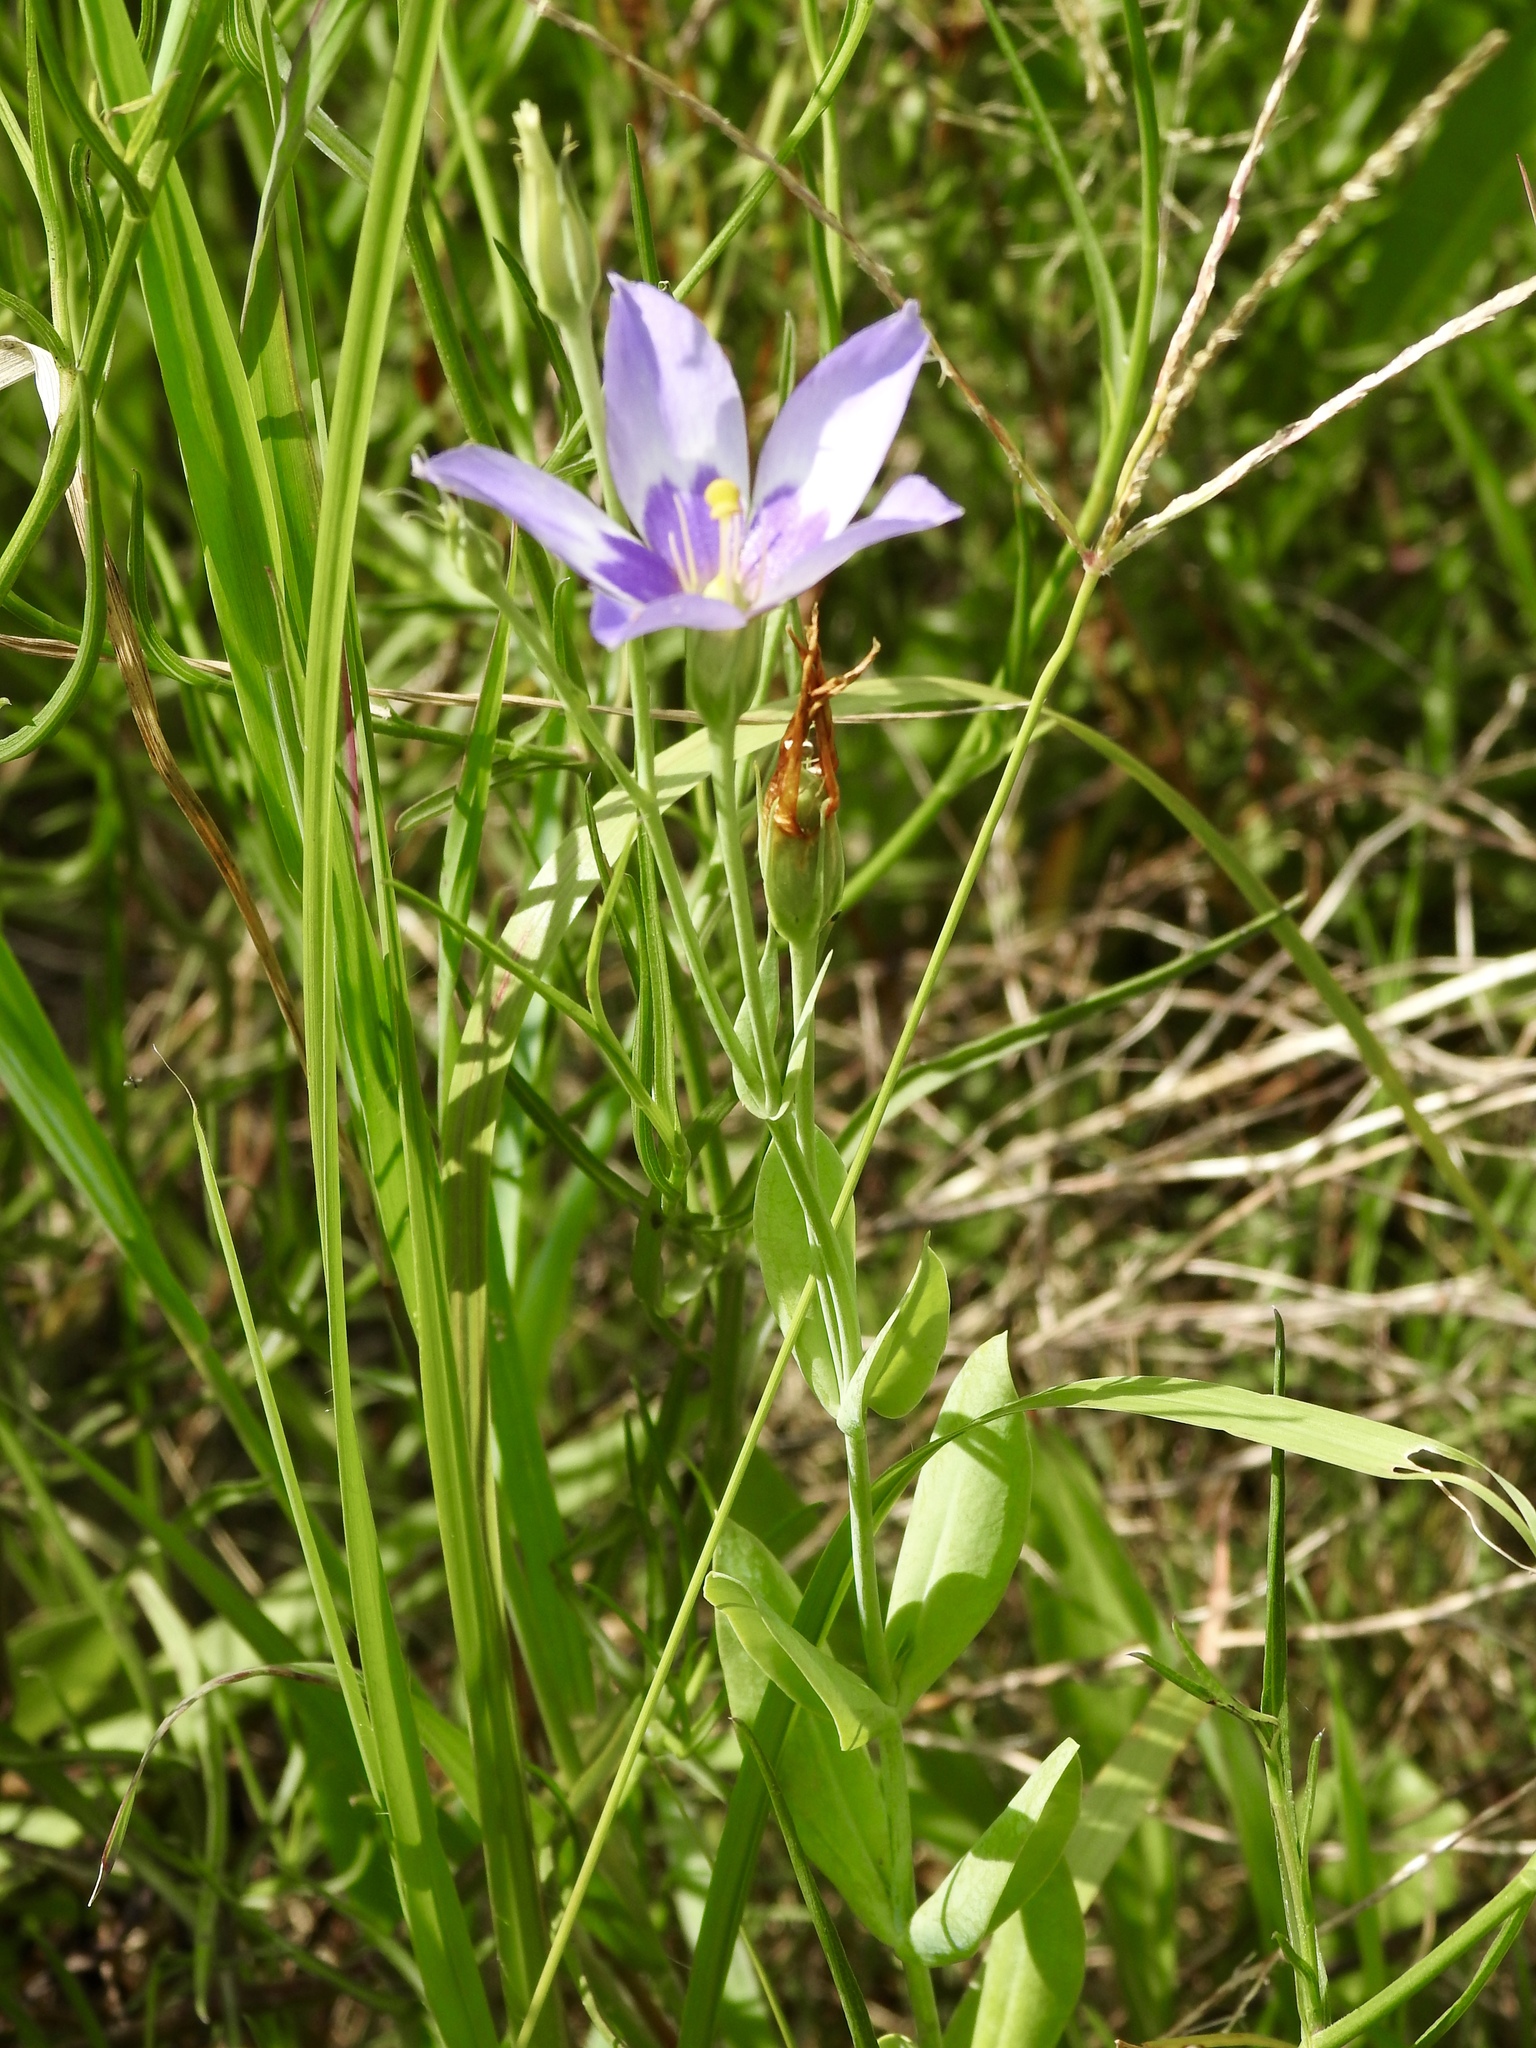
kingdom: Plantae
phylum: Tracheophyta
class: Magnoliopsida
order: Gentianales
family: Gentianaceae
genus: Eustoma
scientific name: Eustoma exaltatum
